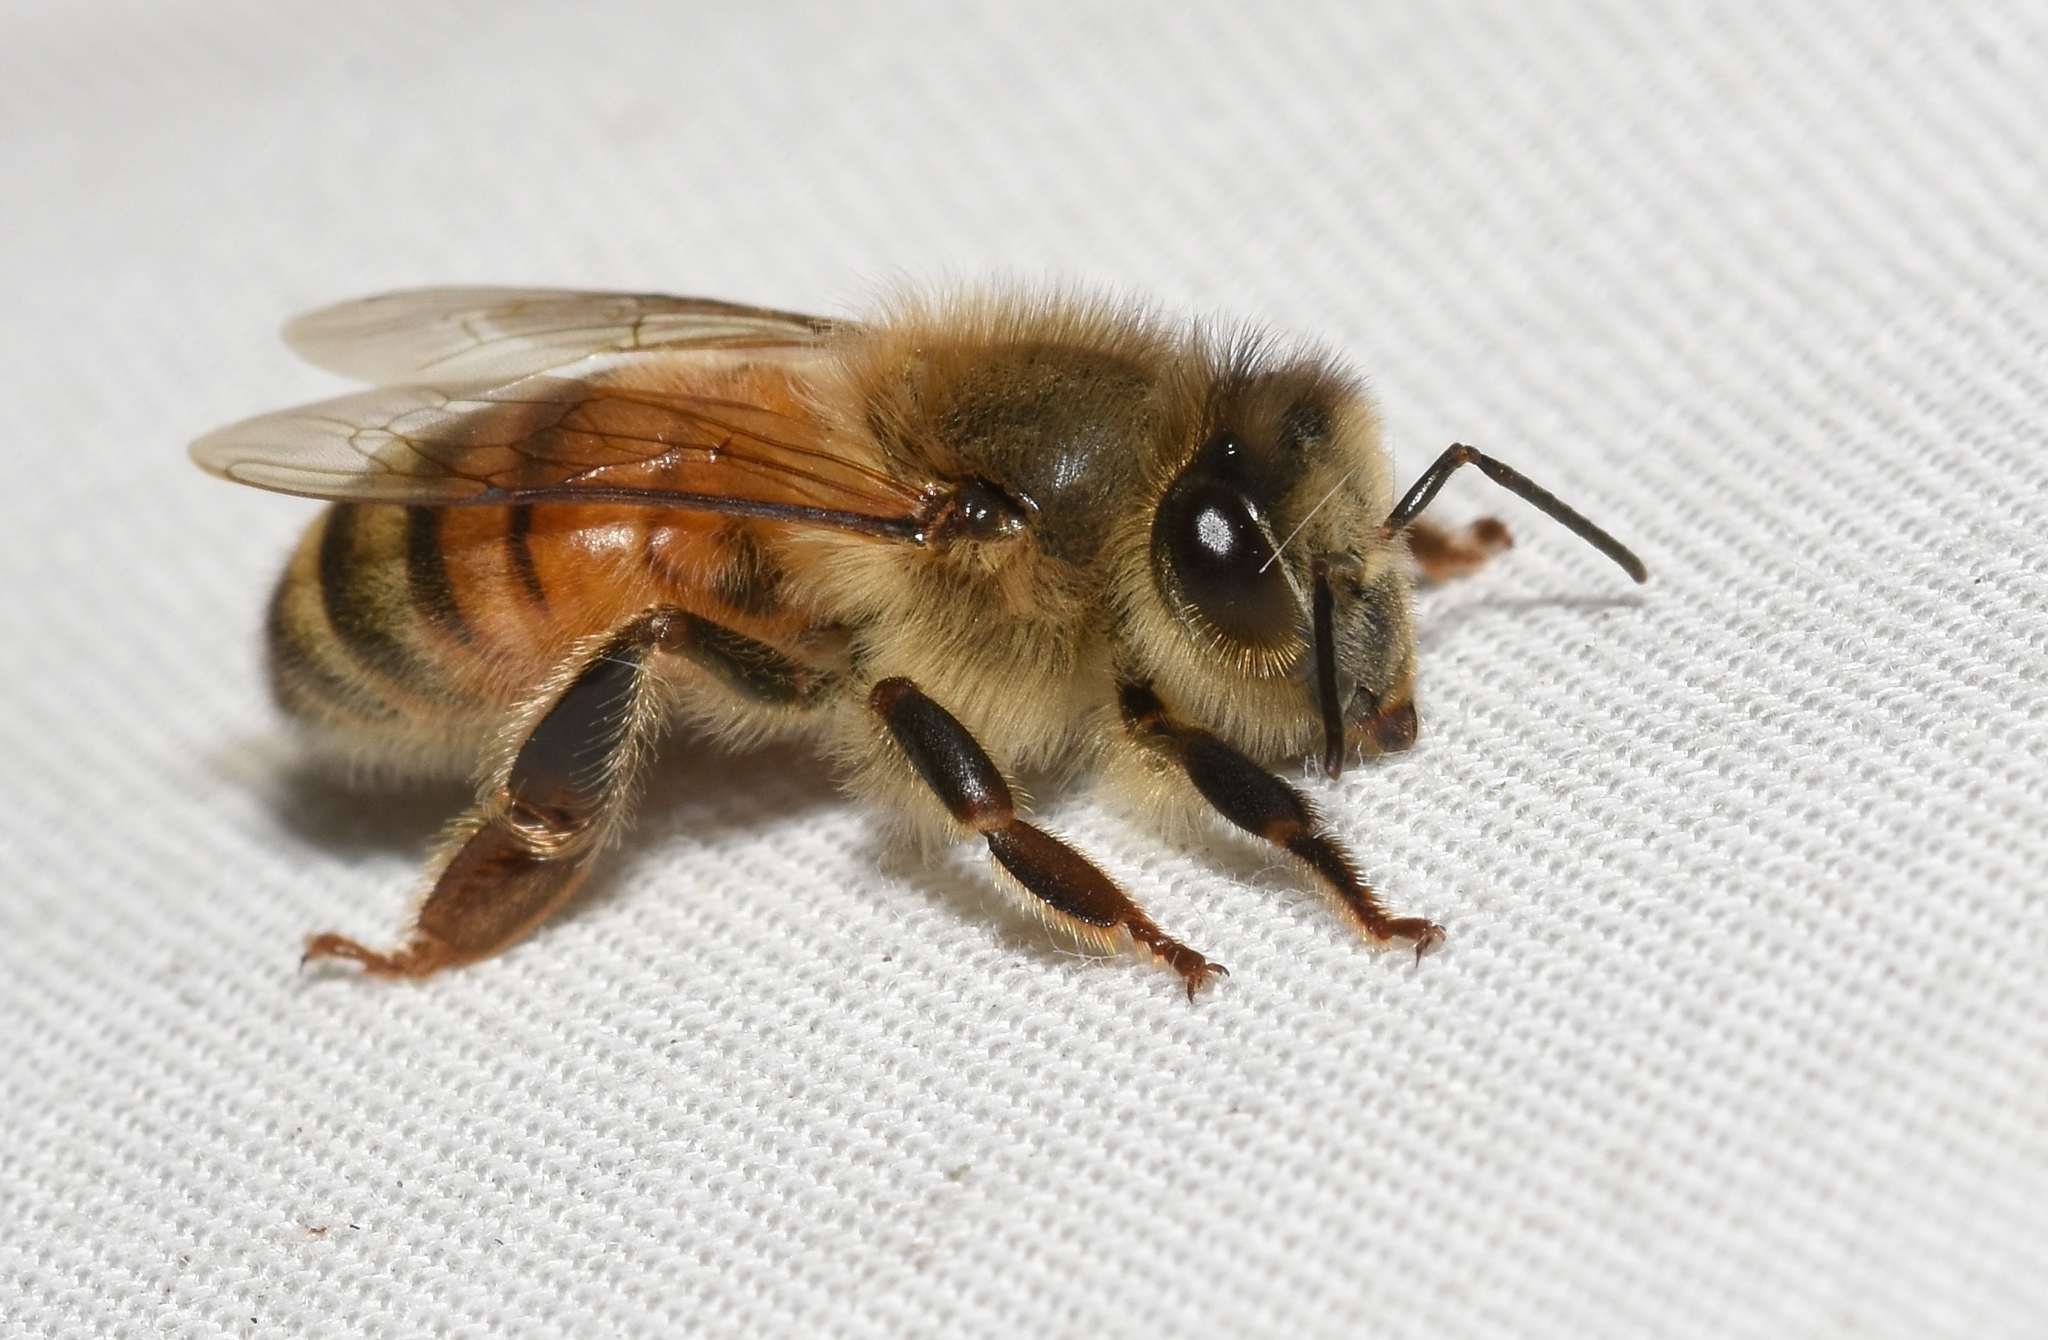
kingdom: Animalia
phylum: Arthropoda
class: Insecta
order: Hymenoptera
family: Apidae
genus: Apis
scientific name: Apis mellifera
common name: Honey bee
